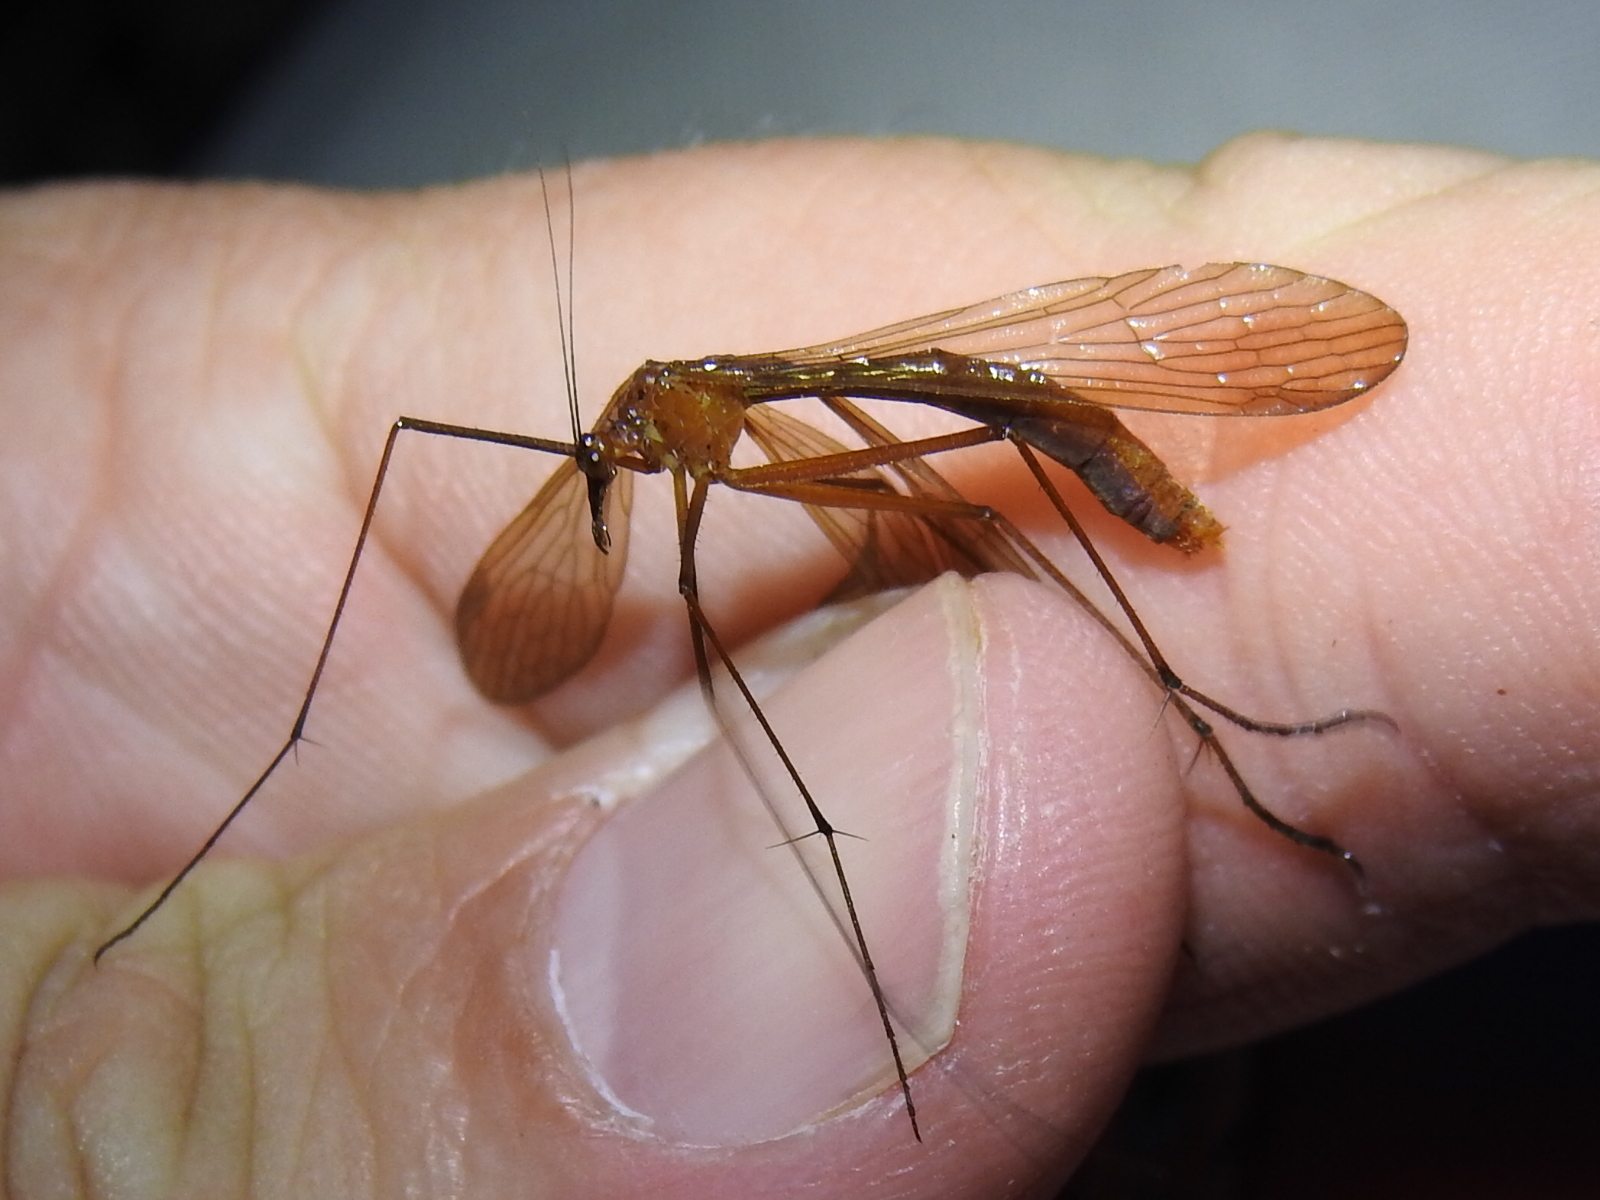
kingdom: Animalia
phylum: Arthropoda
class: Insecta
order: Mecoptera
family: Bittacidae
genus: Bittacus
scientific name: Bittacus texanus
